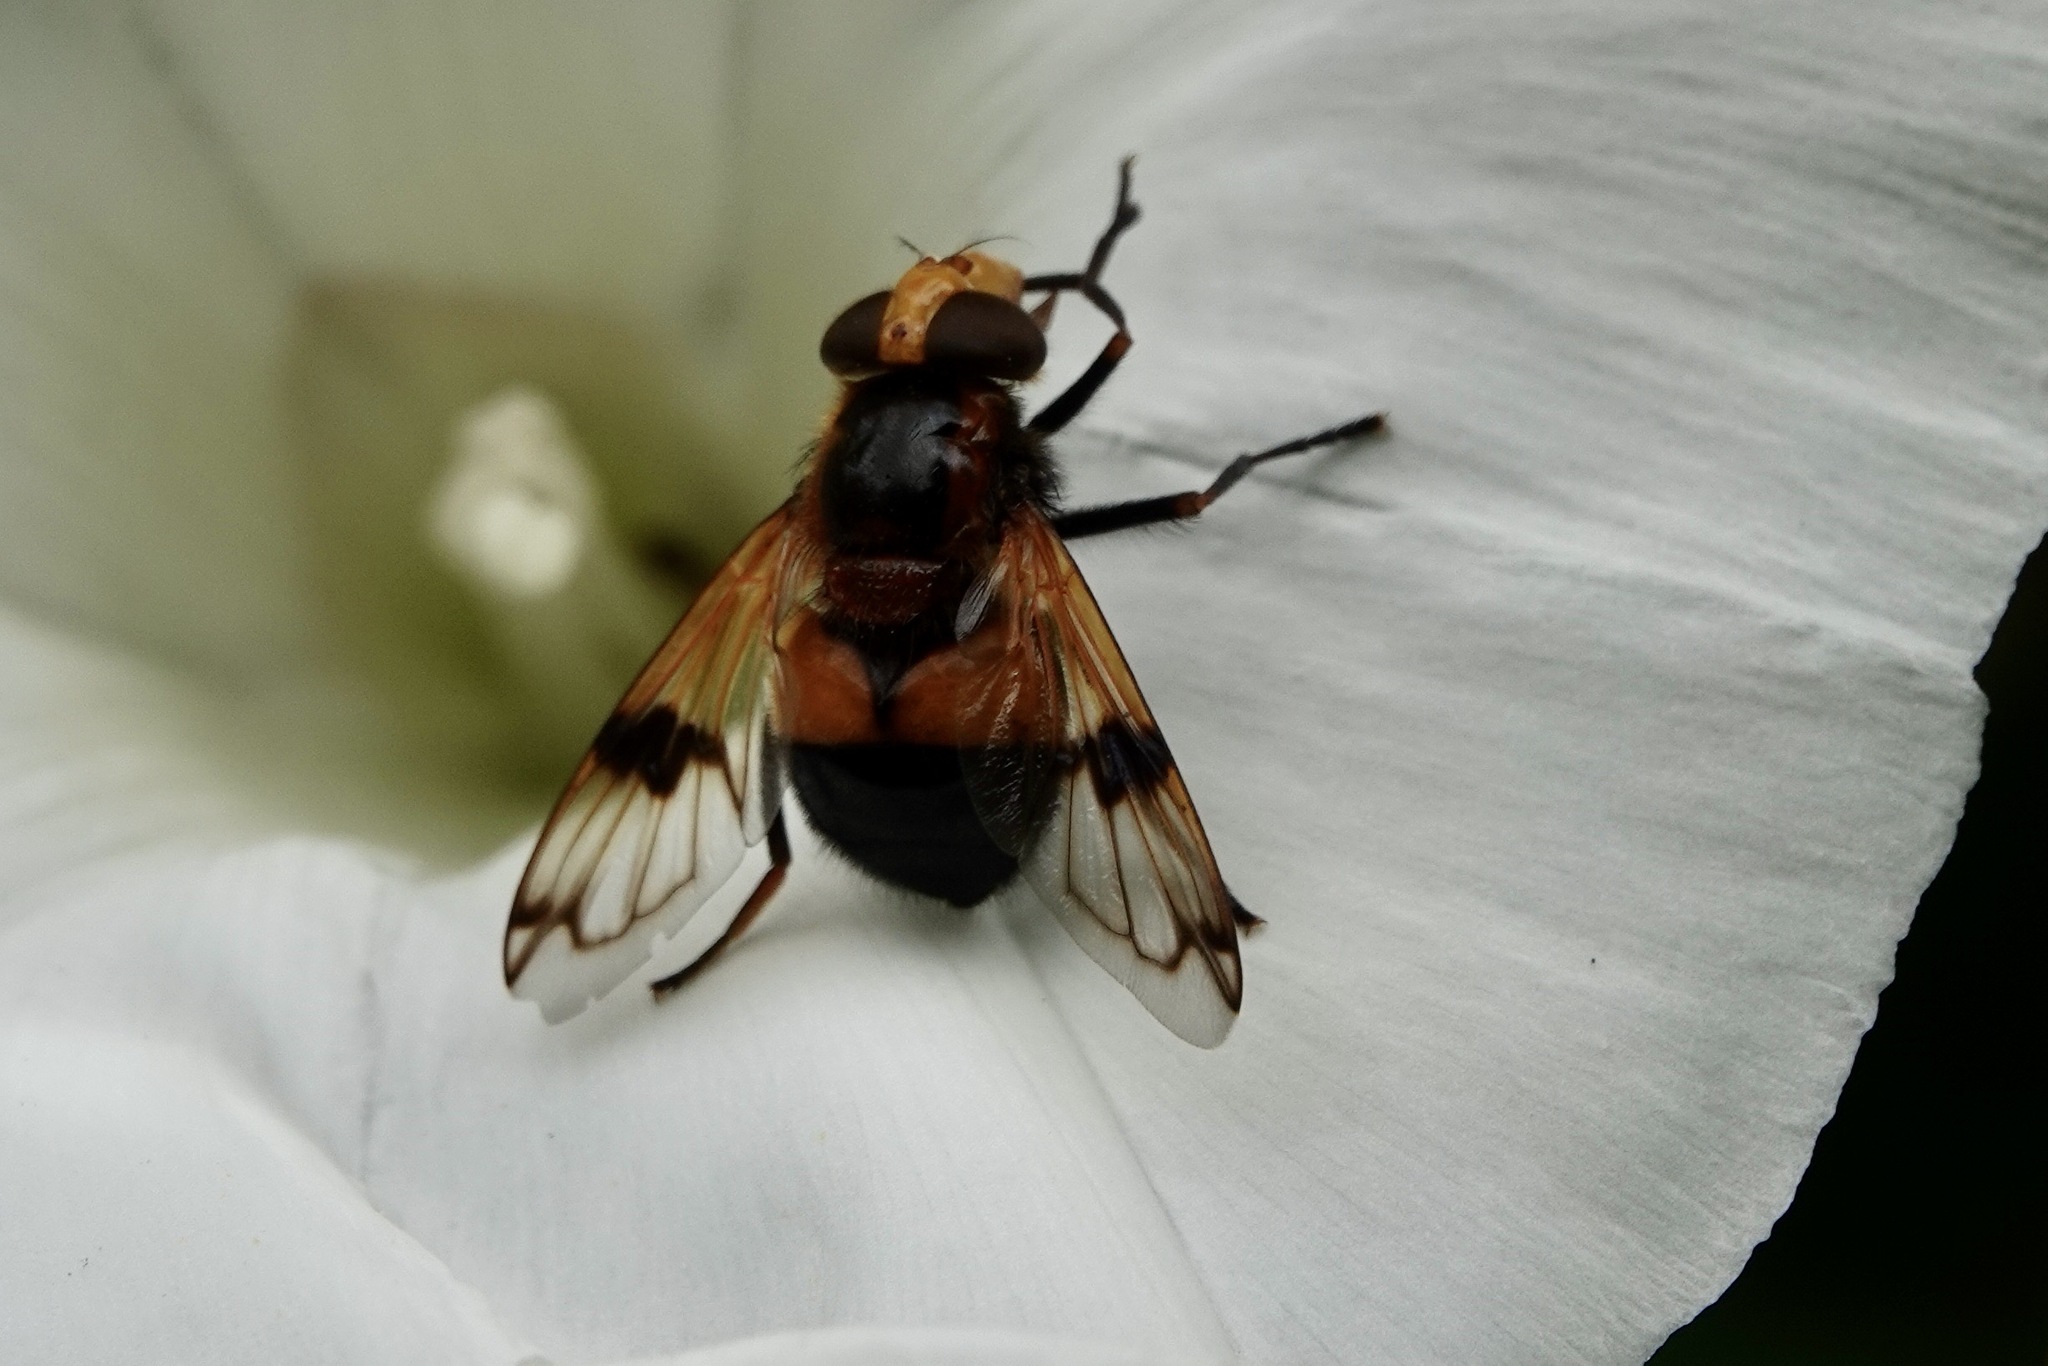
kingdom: Animalia
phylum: Arthropoda
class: Insecta
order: Diptera
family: Syrphidae
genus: Volucella
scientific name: Volucella inflata
